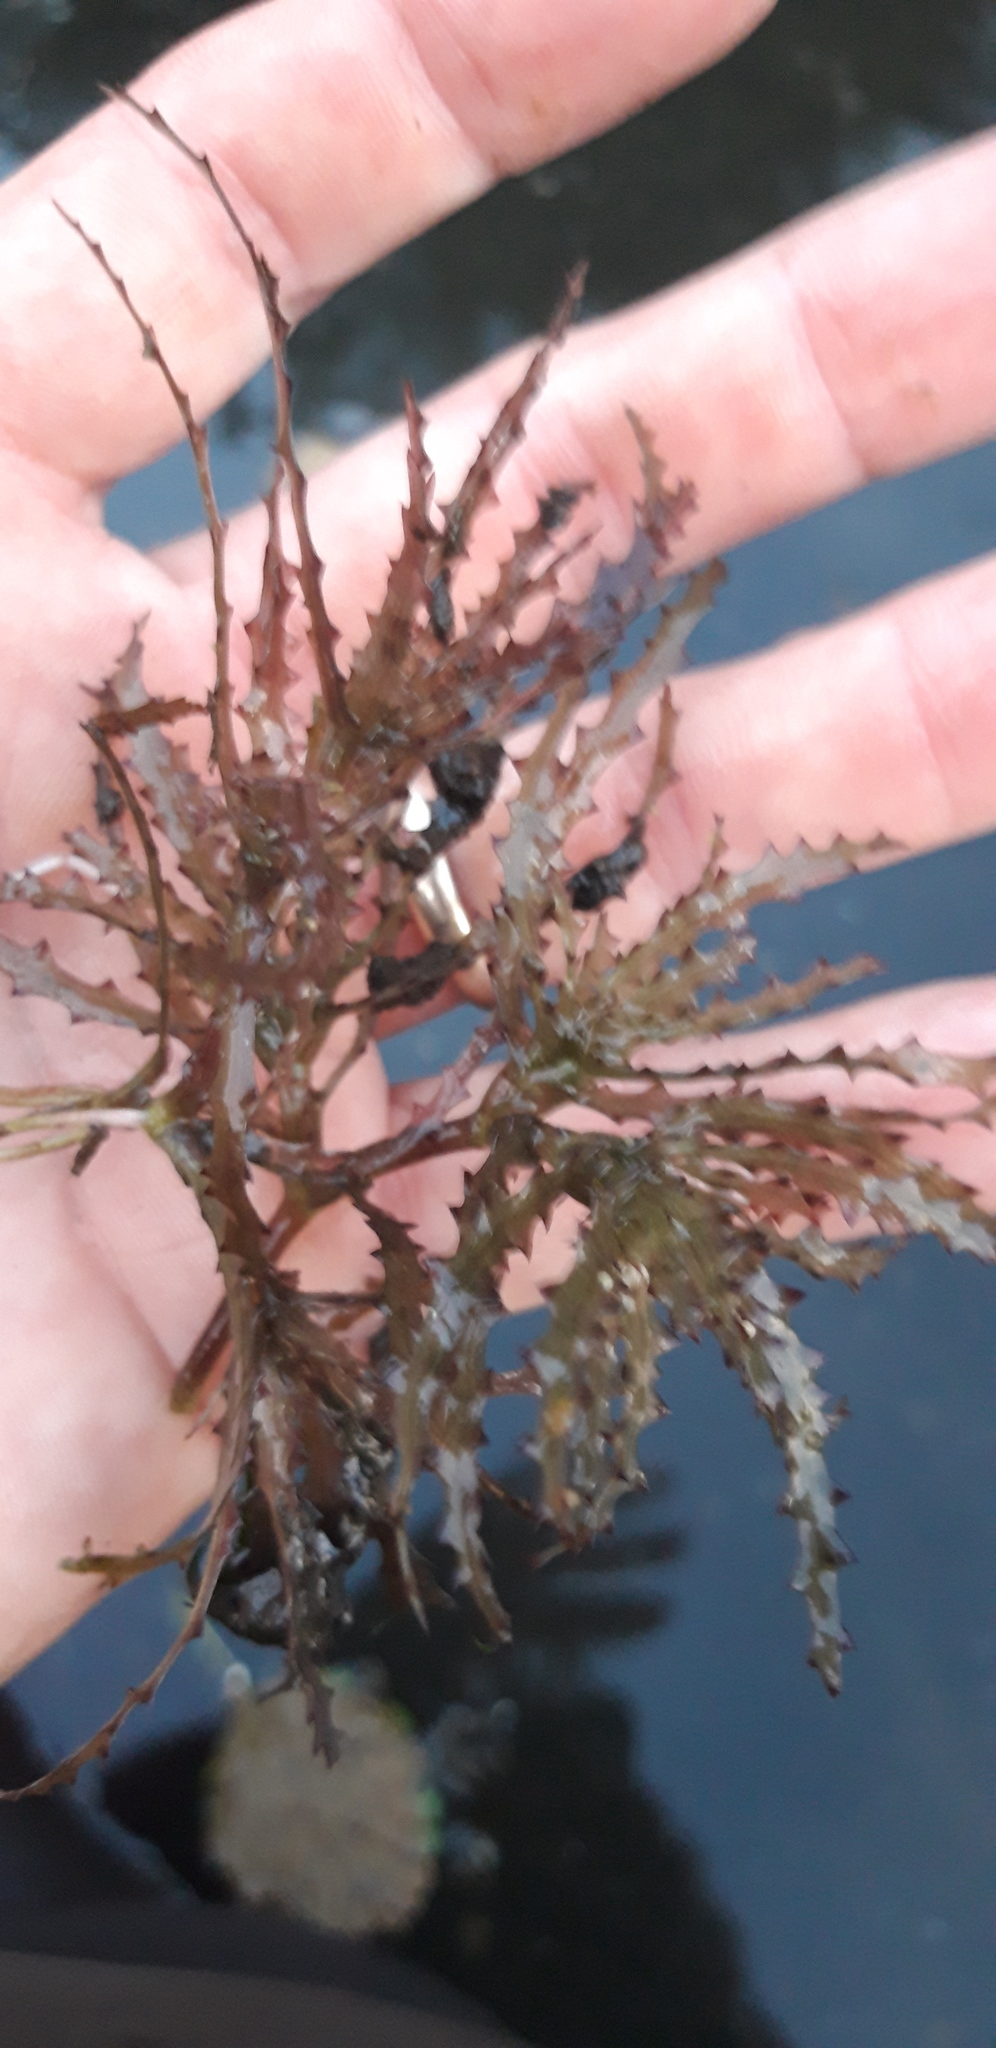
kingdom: Plantae
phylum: Tracheophyta
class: Liliopsida
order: Alismatales
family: Hydrocharitaceae
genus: Najas
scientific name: Najas marina
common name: Holly-leaved naiad
